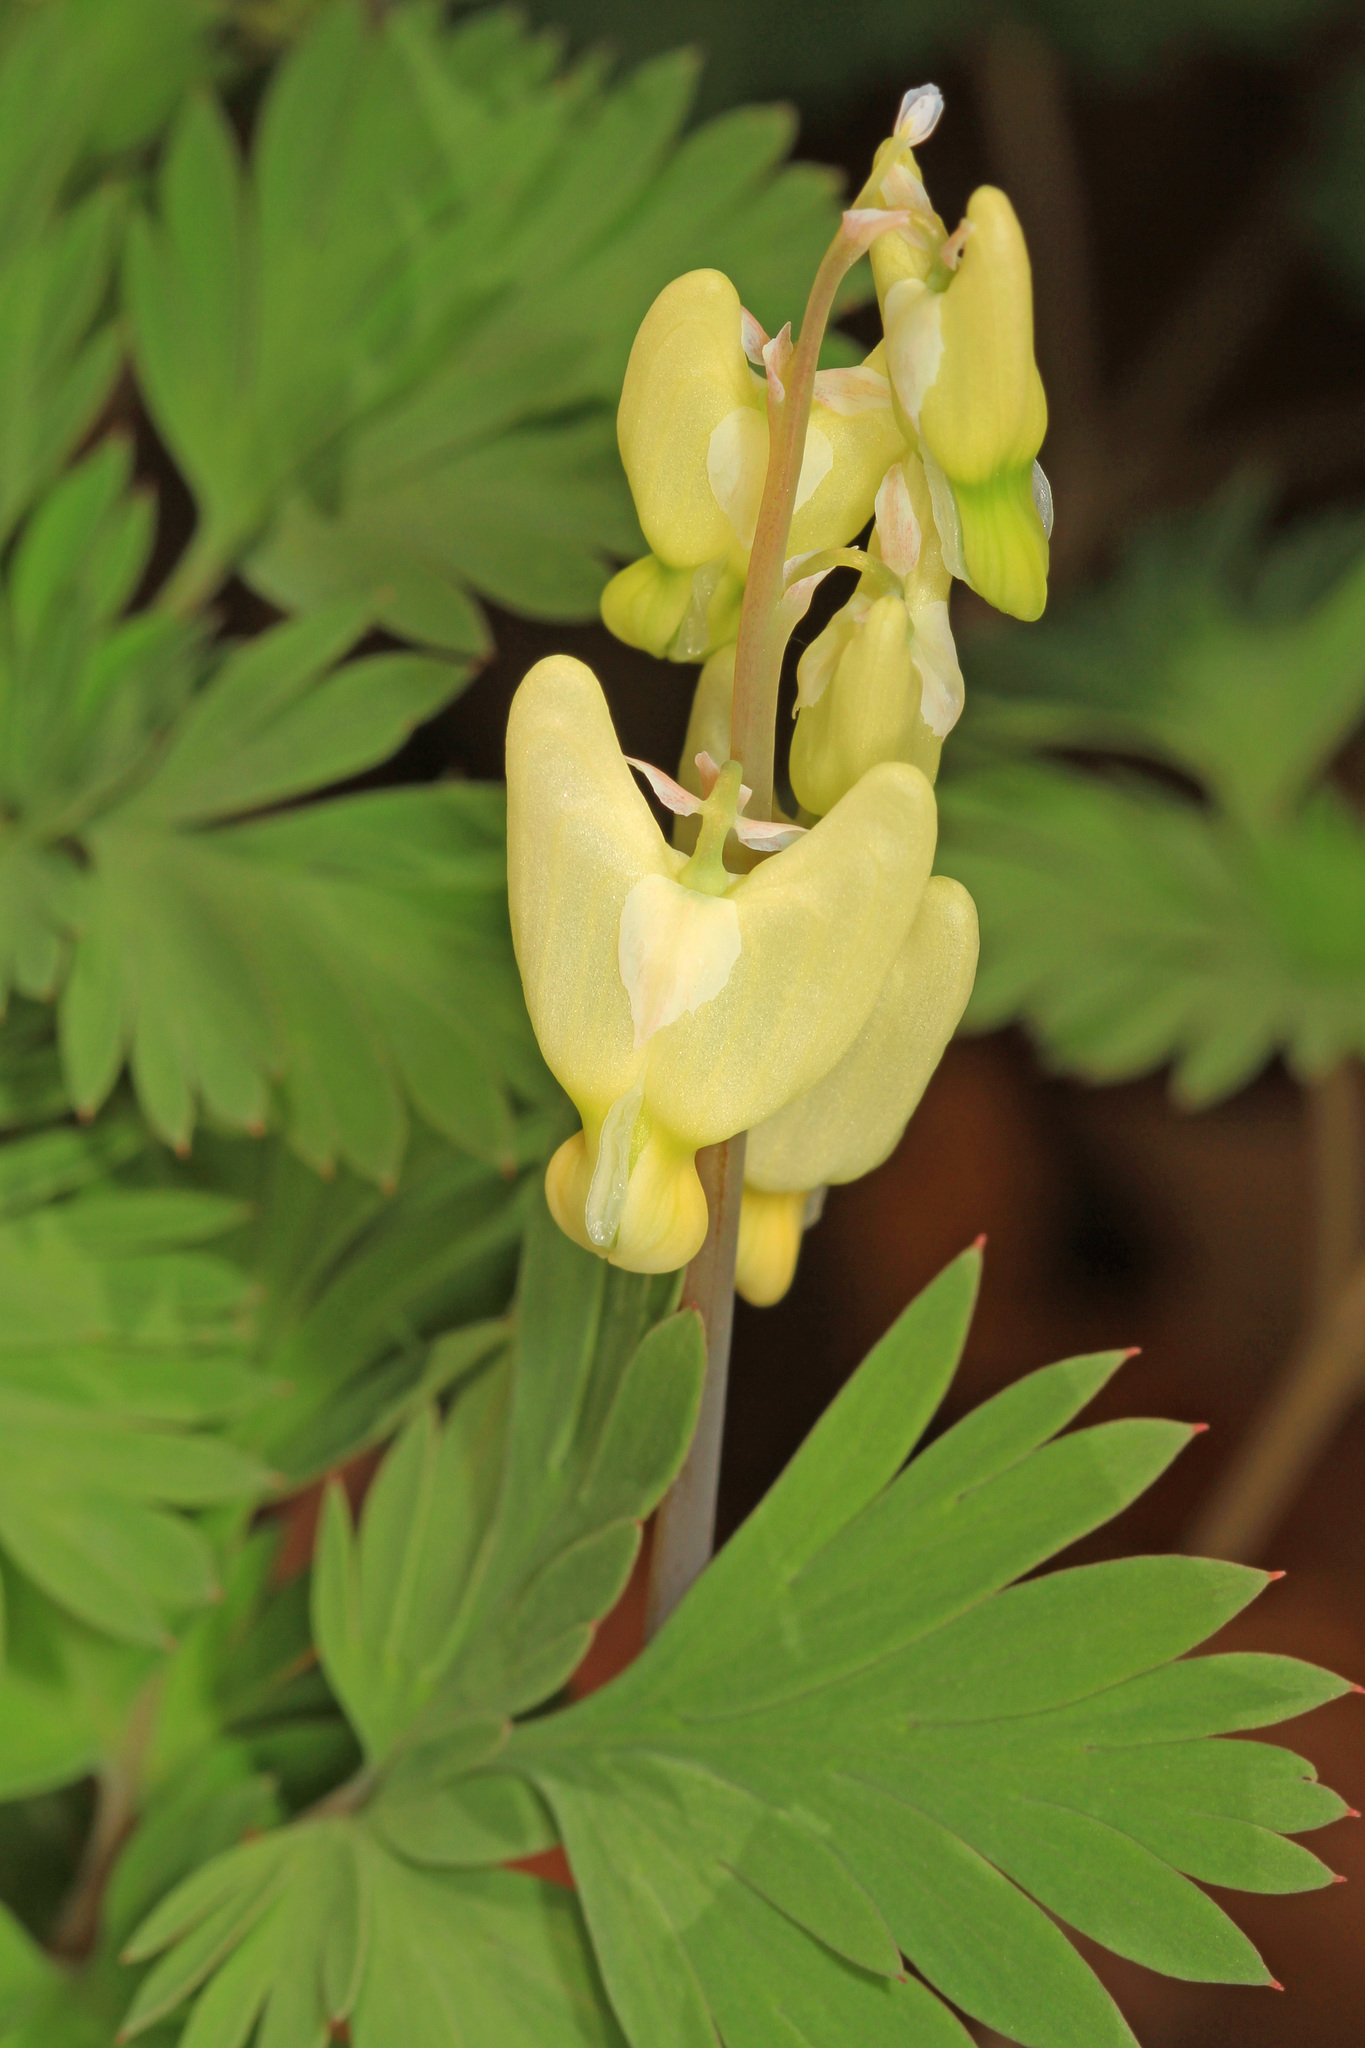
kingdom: Plantae
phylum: Tracheophyta
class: Magnoliopsida
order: Ranunculales
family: Papaveraceae
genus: Dicentra
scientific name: Dicentra cucullaria
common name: Dutchman's breeches
